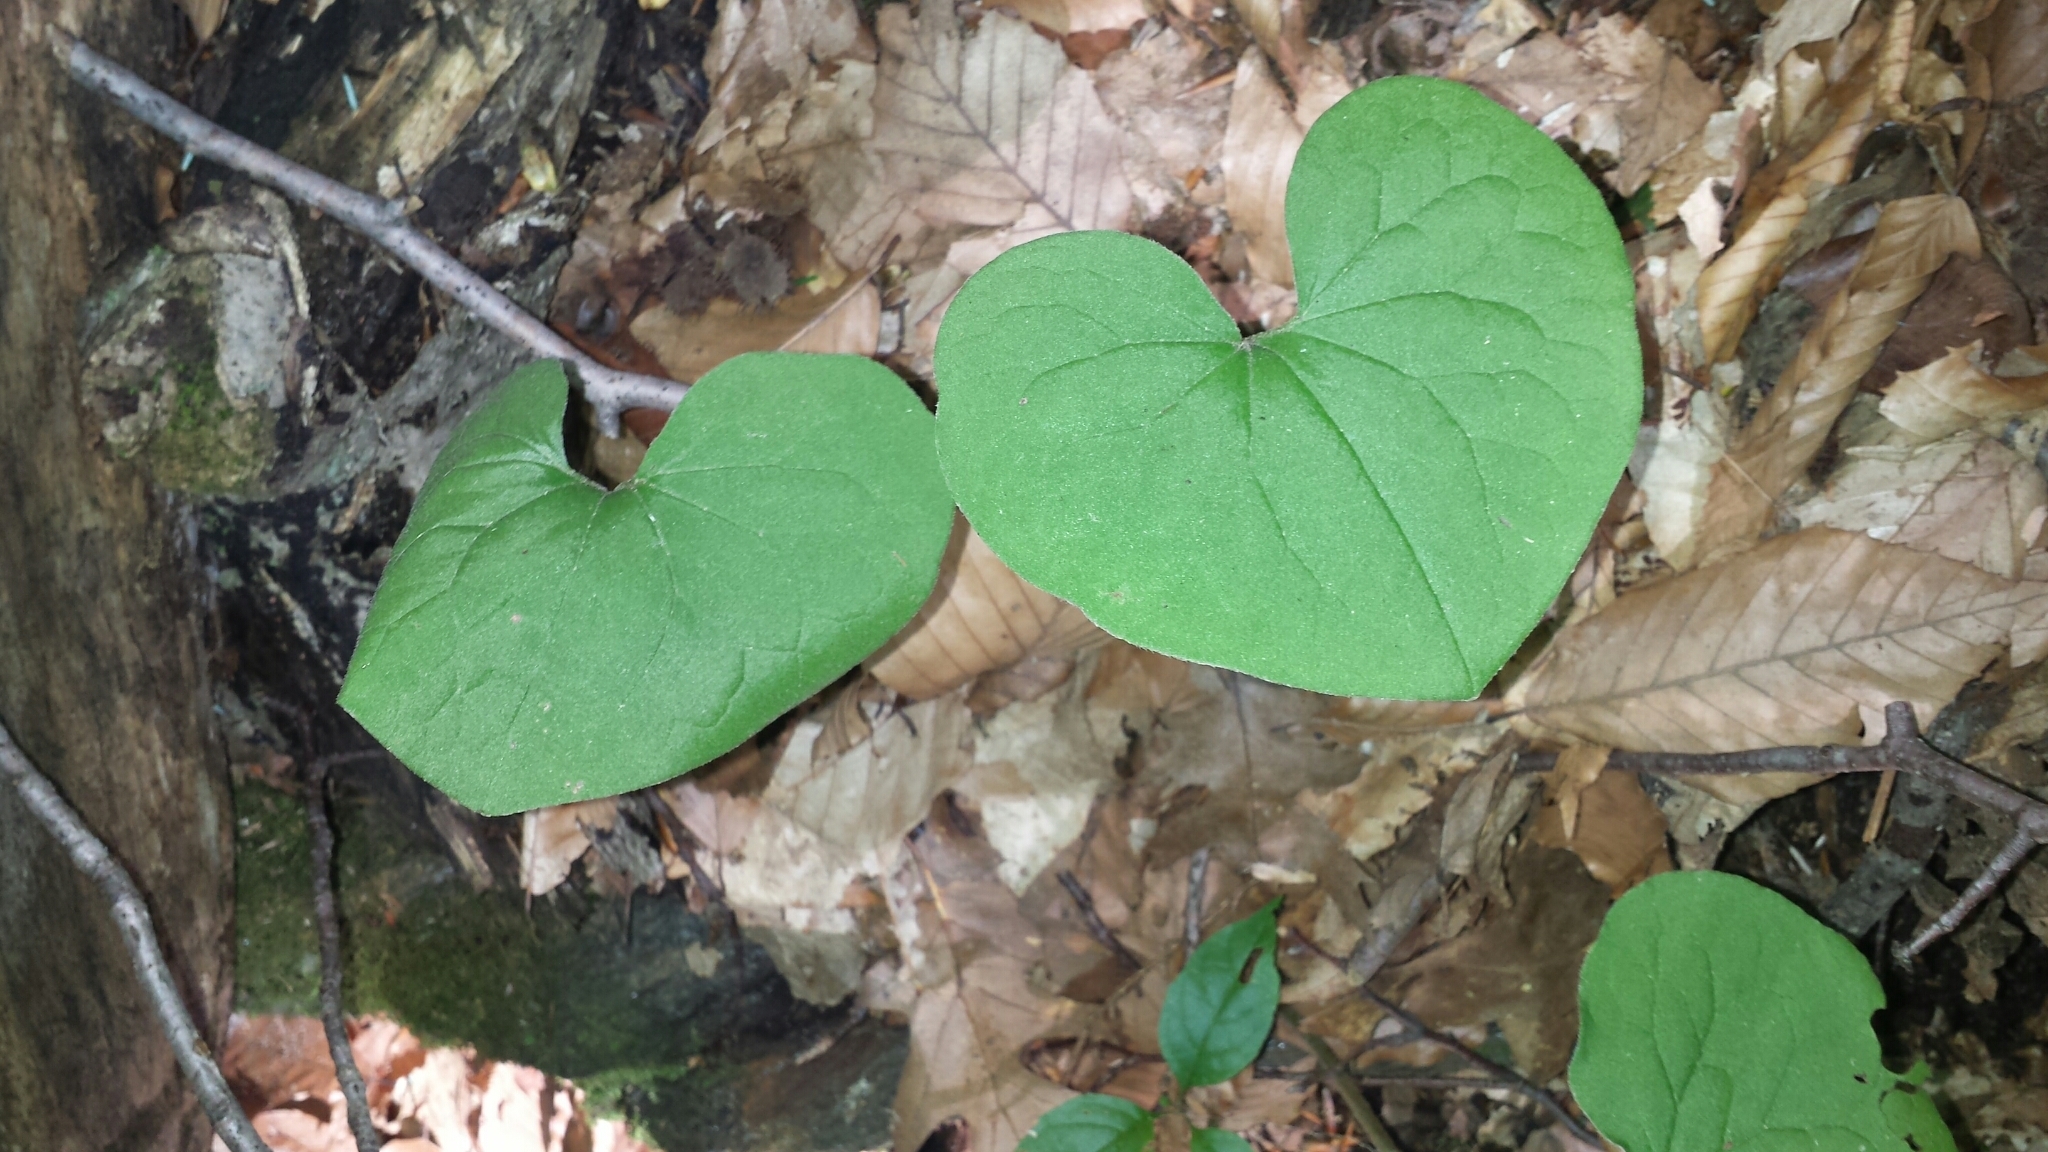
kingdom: Plantae
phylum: Tracheophyta
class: Magnoliopsida
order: Piperales
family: Aristolochiaceae
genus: Asarum
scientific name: Asarum canadense
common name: Wild ginger
